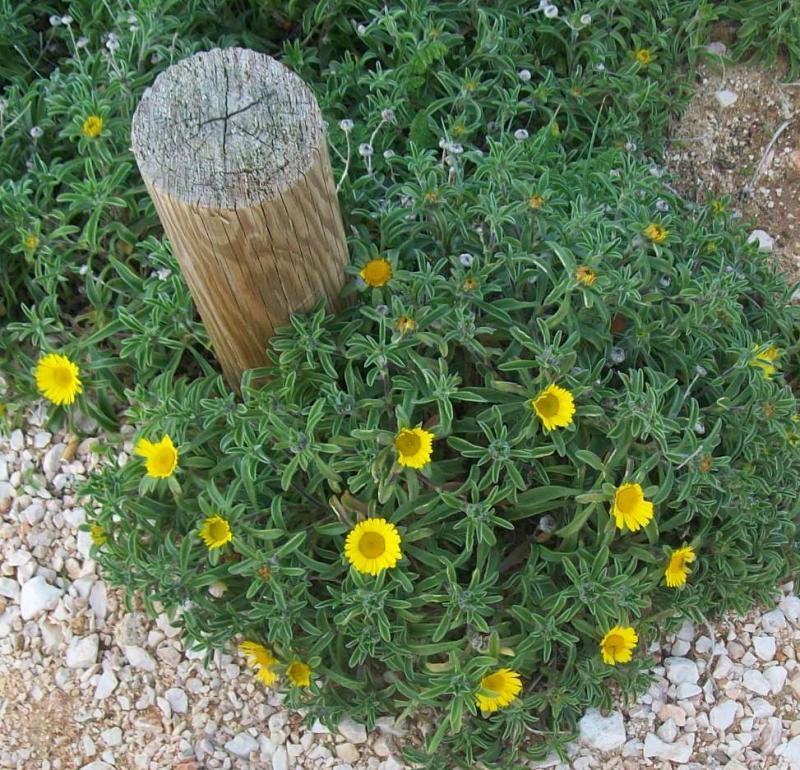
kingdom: Plantae
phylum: Tracheophyta
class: Magnoliopsida
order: Asterales
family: Asteraceae
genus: Pallenis
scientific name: Pallenis maritima
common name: Golden coin daisy
